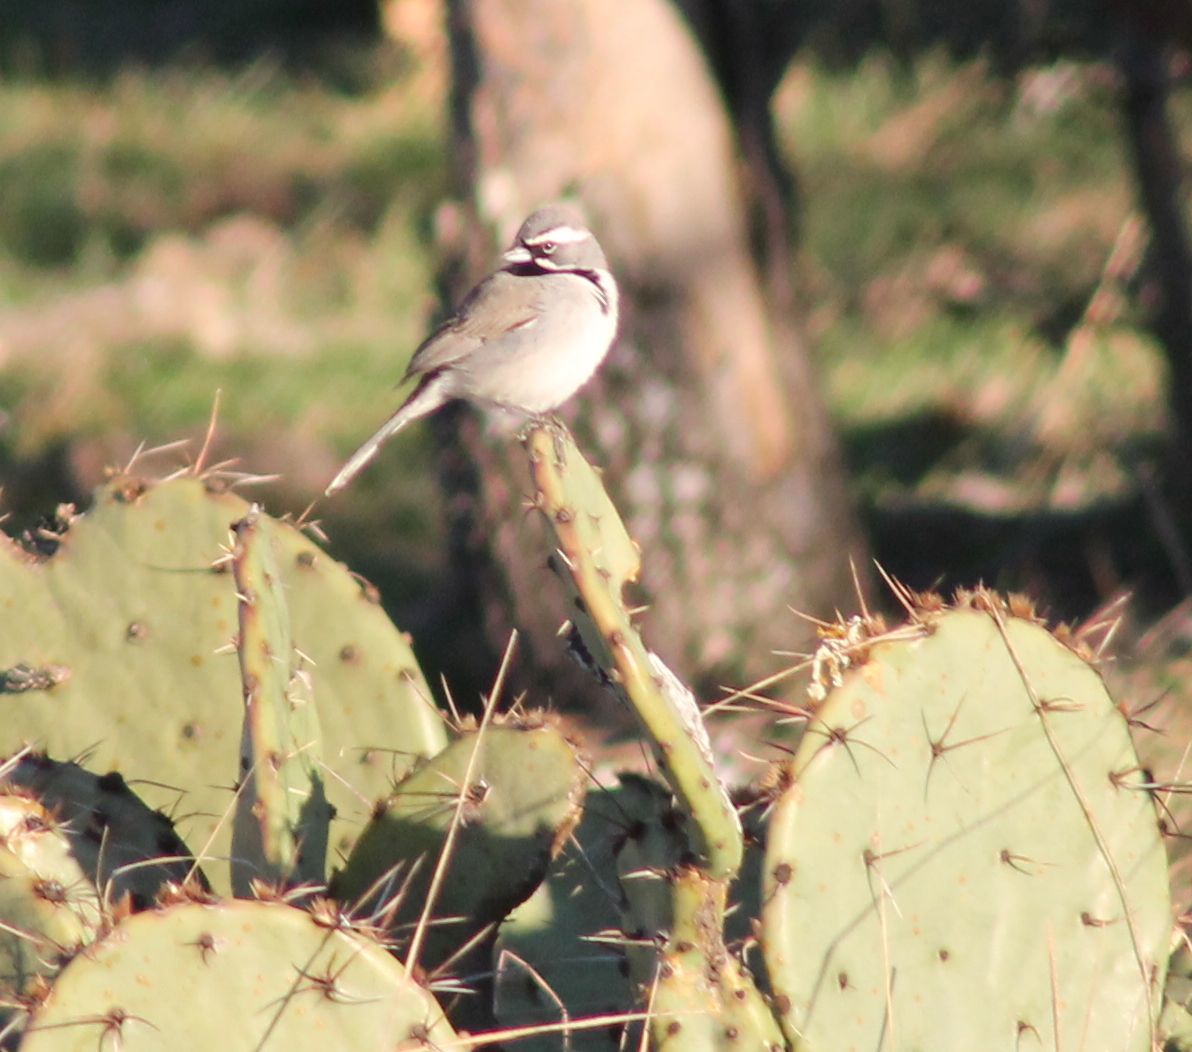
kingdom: Animalia
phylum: Chordata
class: Aves
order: Passeriformes
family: Passerellidae
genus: Amphispiza
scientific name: Amphispiza bilineata
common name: Black-throated sparrow
